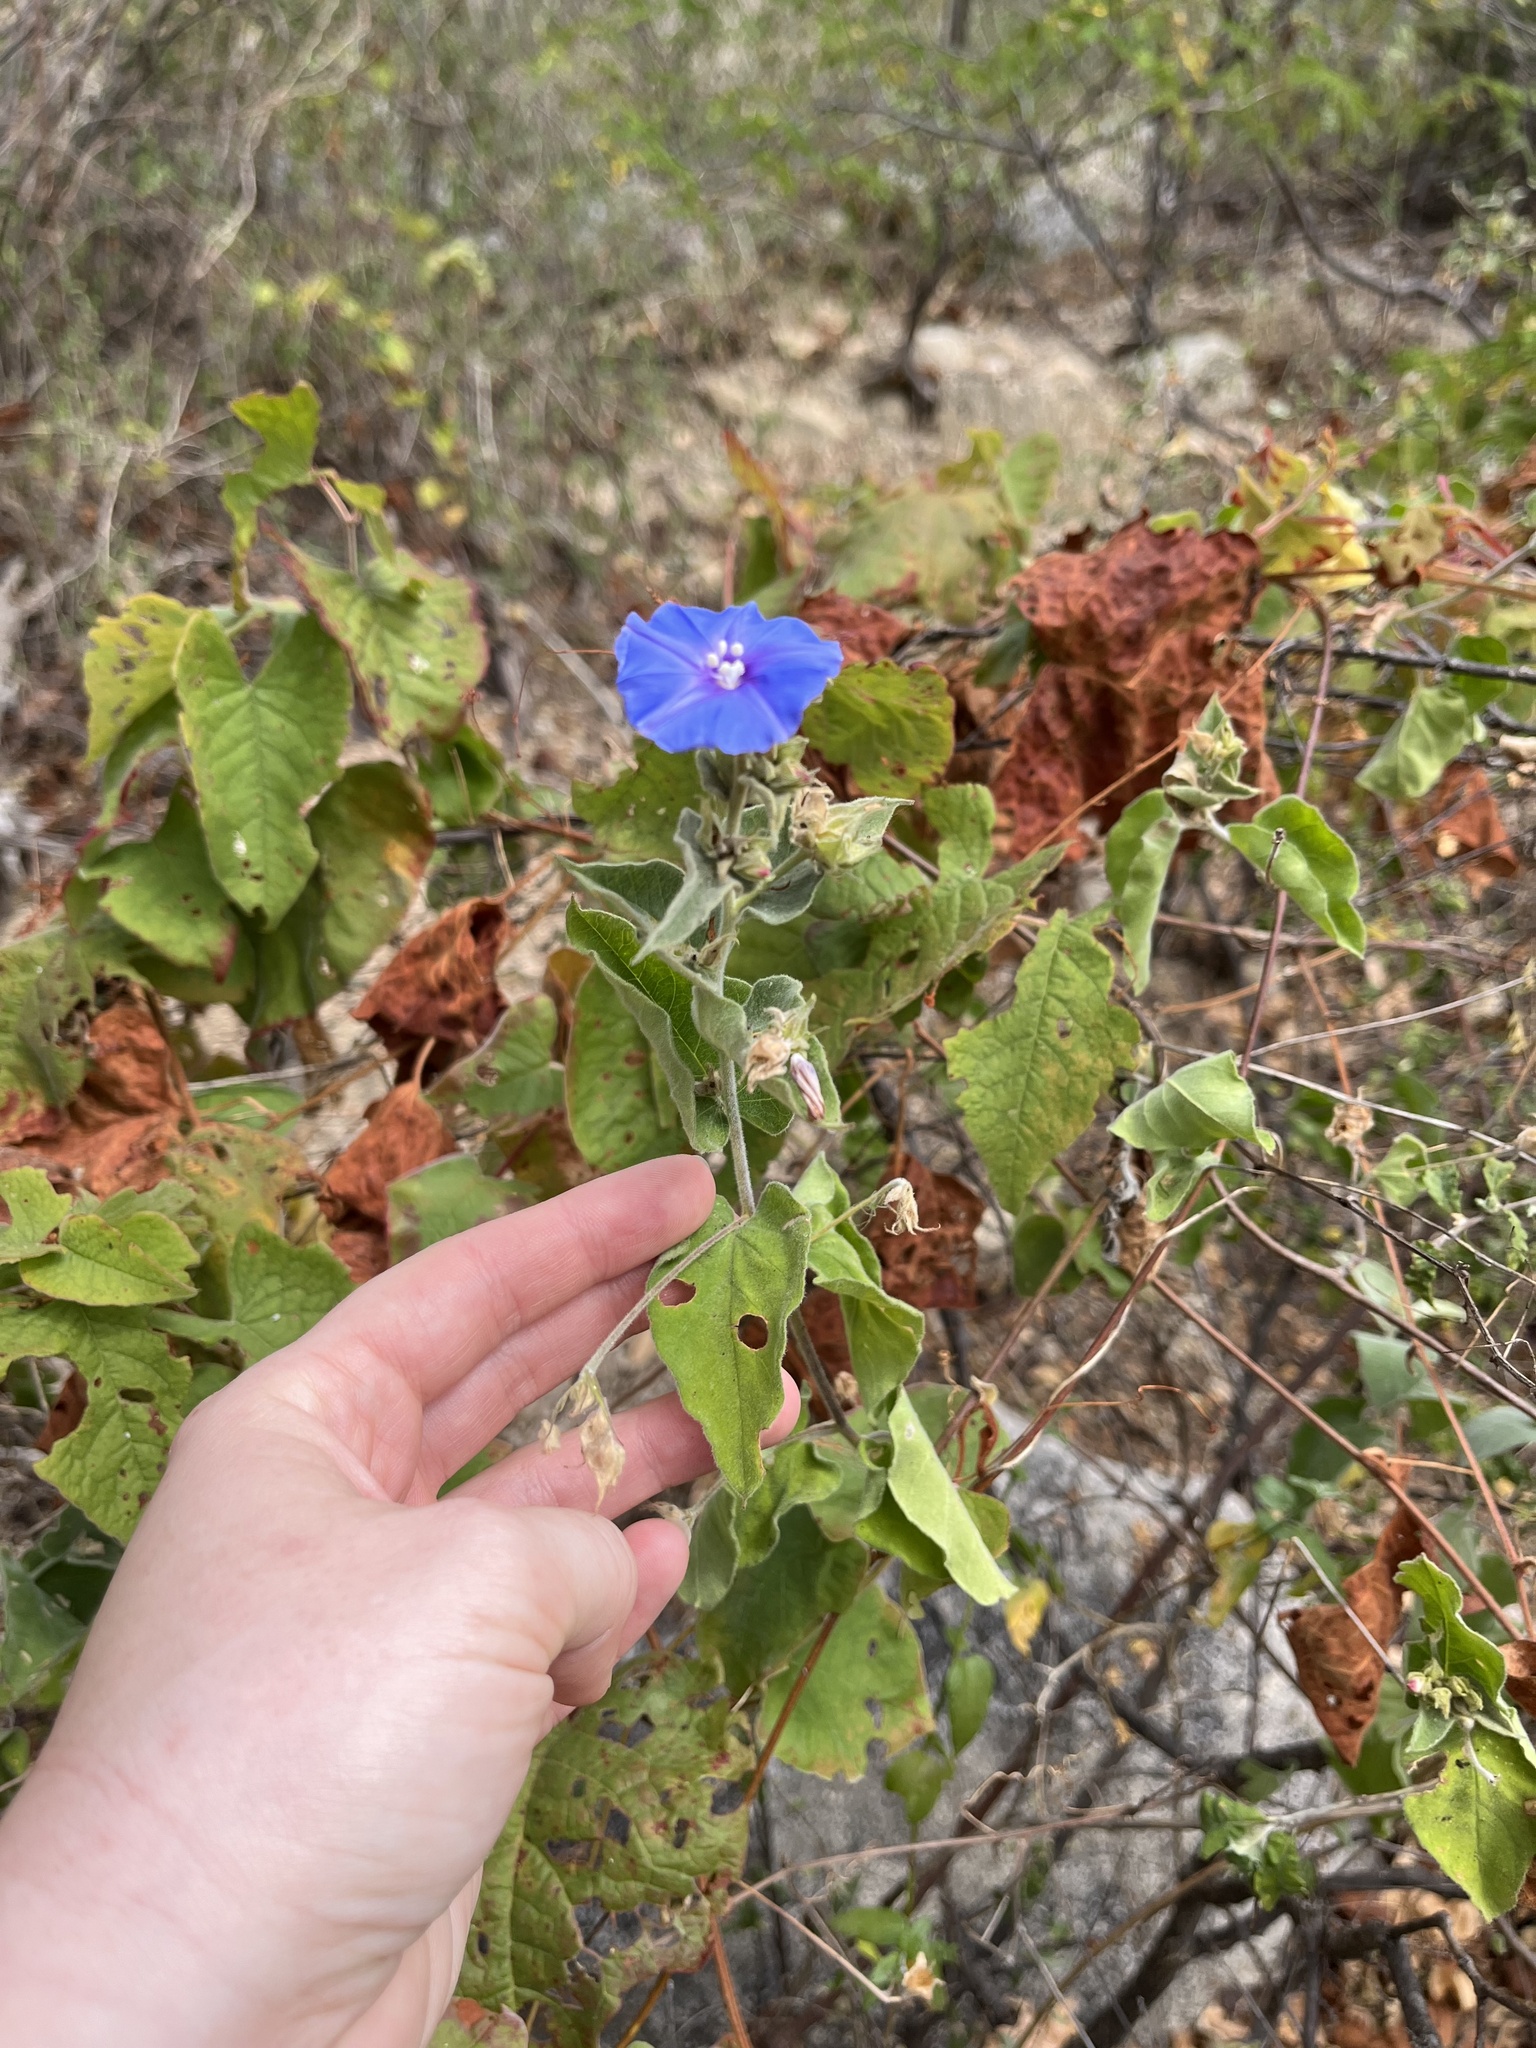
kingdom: Plantae
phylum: Tracheophyta
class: Magnoliopsida
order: Solanales
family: Convolvulaceae
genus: Jacquemontia
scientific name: Jacquemontia abutiloides
